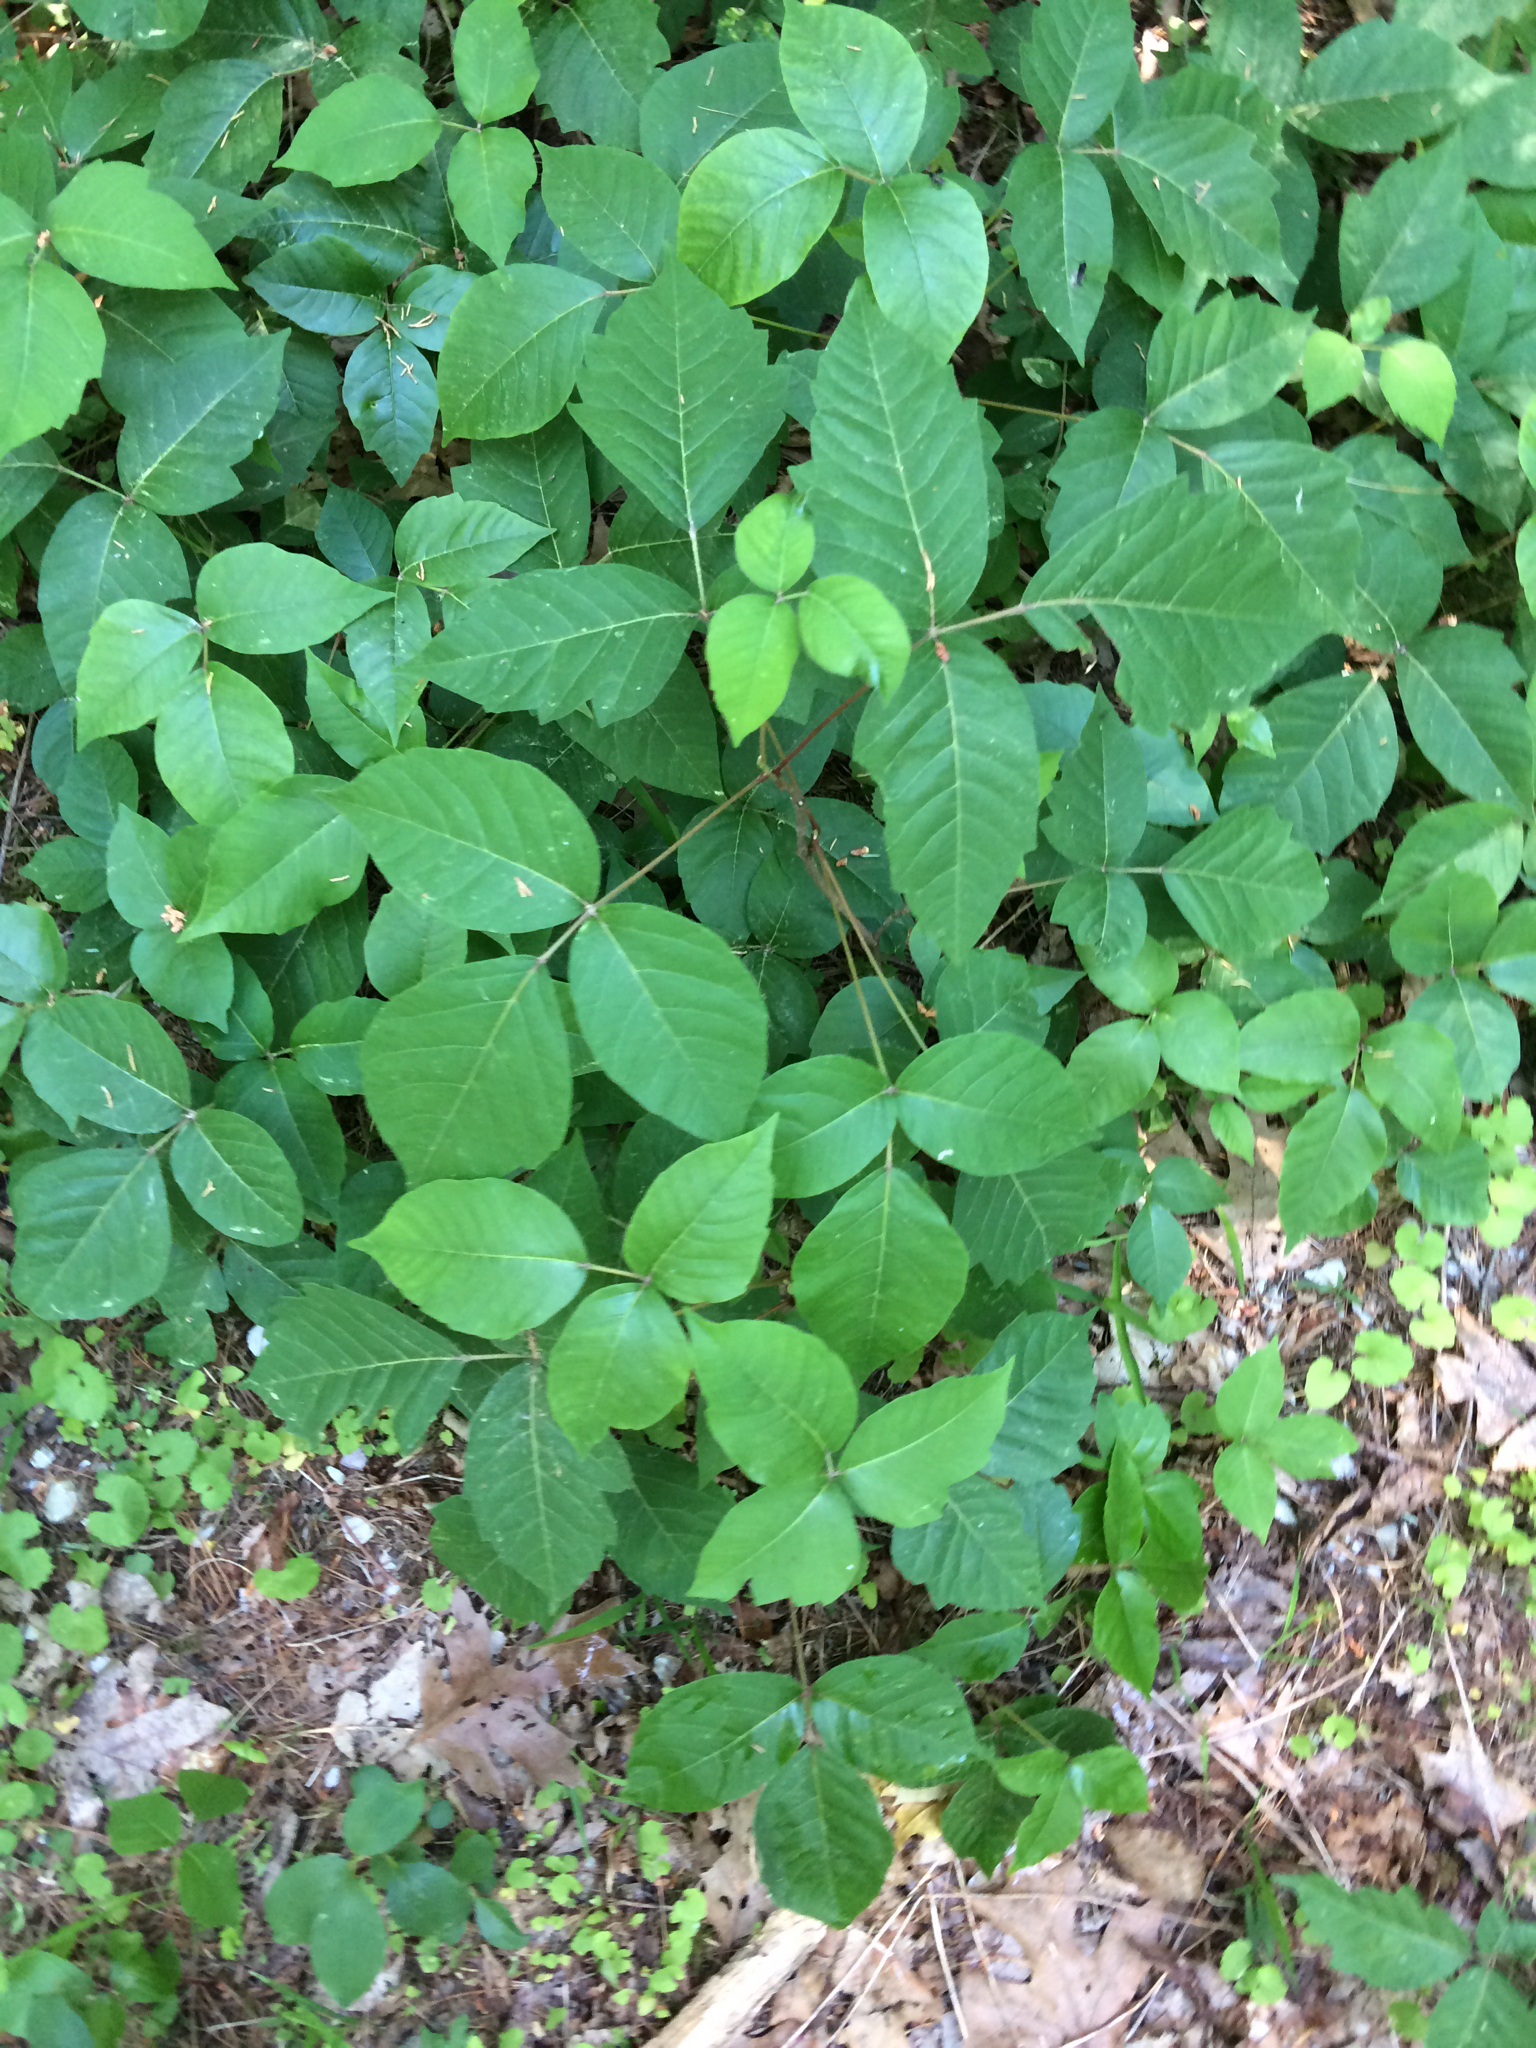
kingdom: Plantae
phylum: Tracheophyta
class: Magnoliopsida
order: Sapindales
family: Anacardiaceae
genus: Toxicodendron
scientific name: Toxicodendron radicans
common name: Poison ivy
